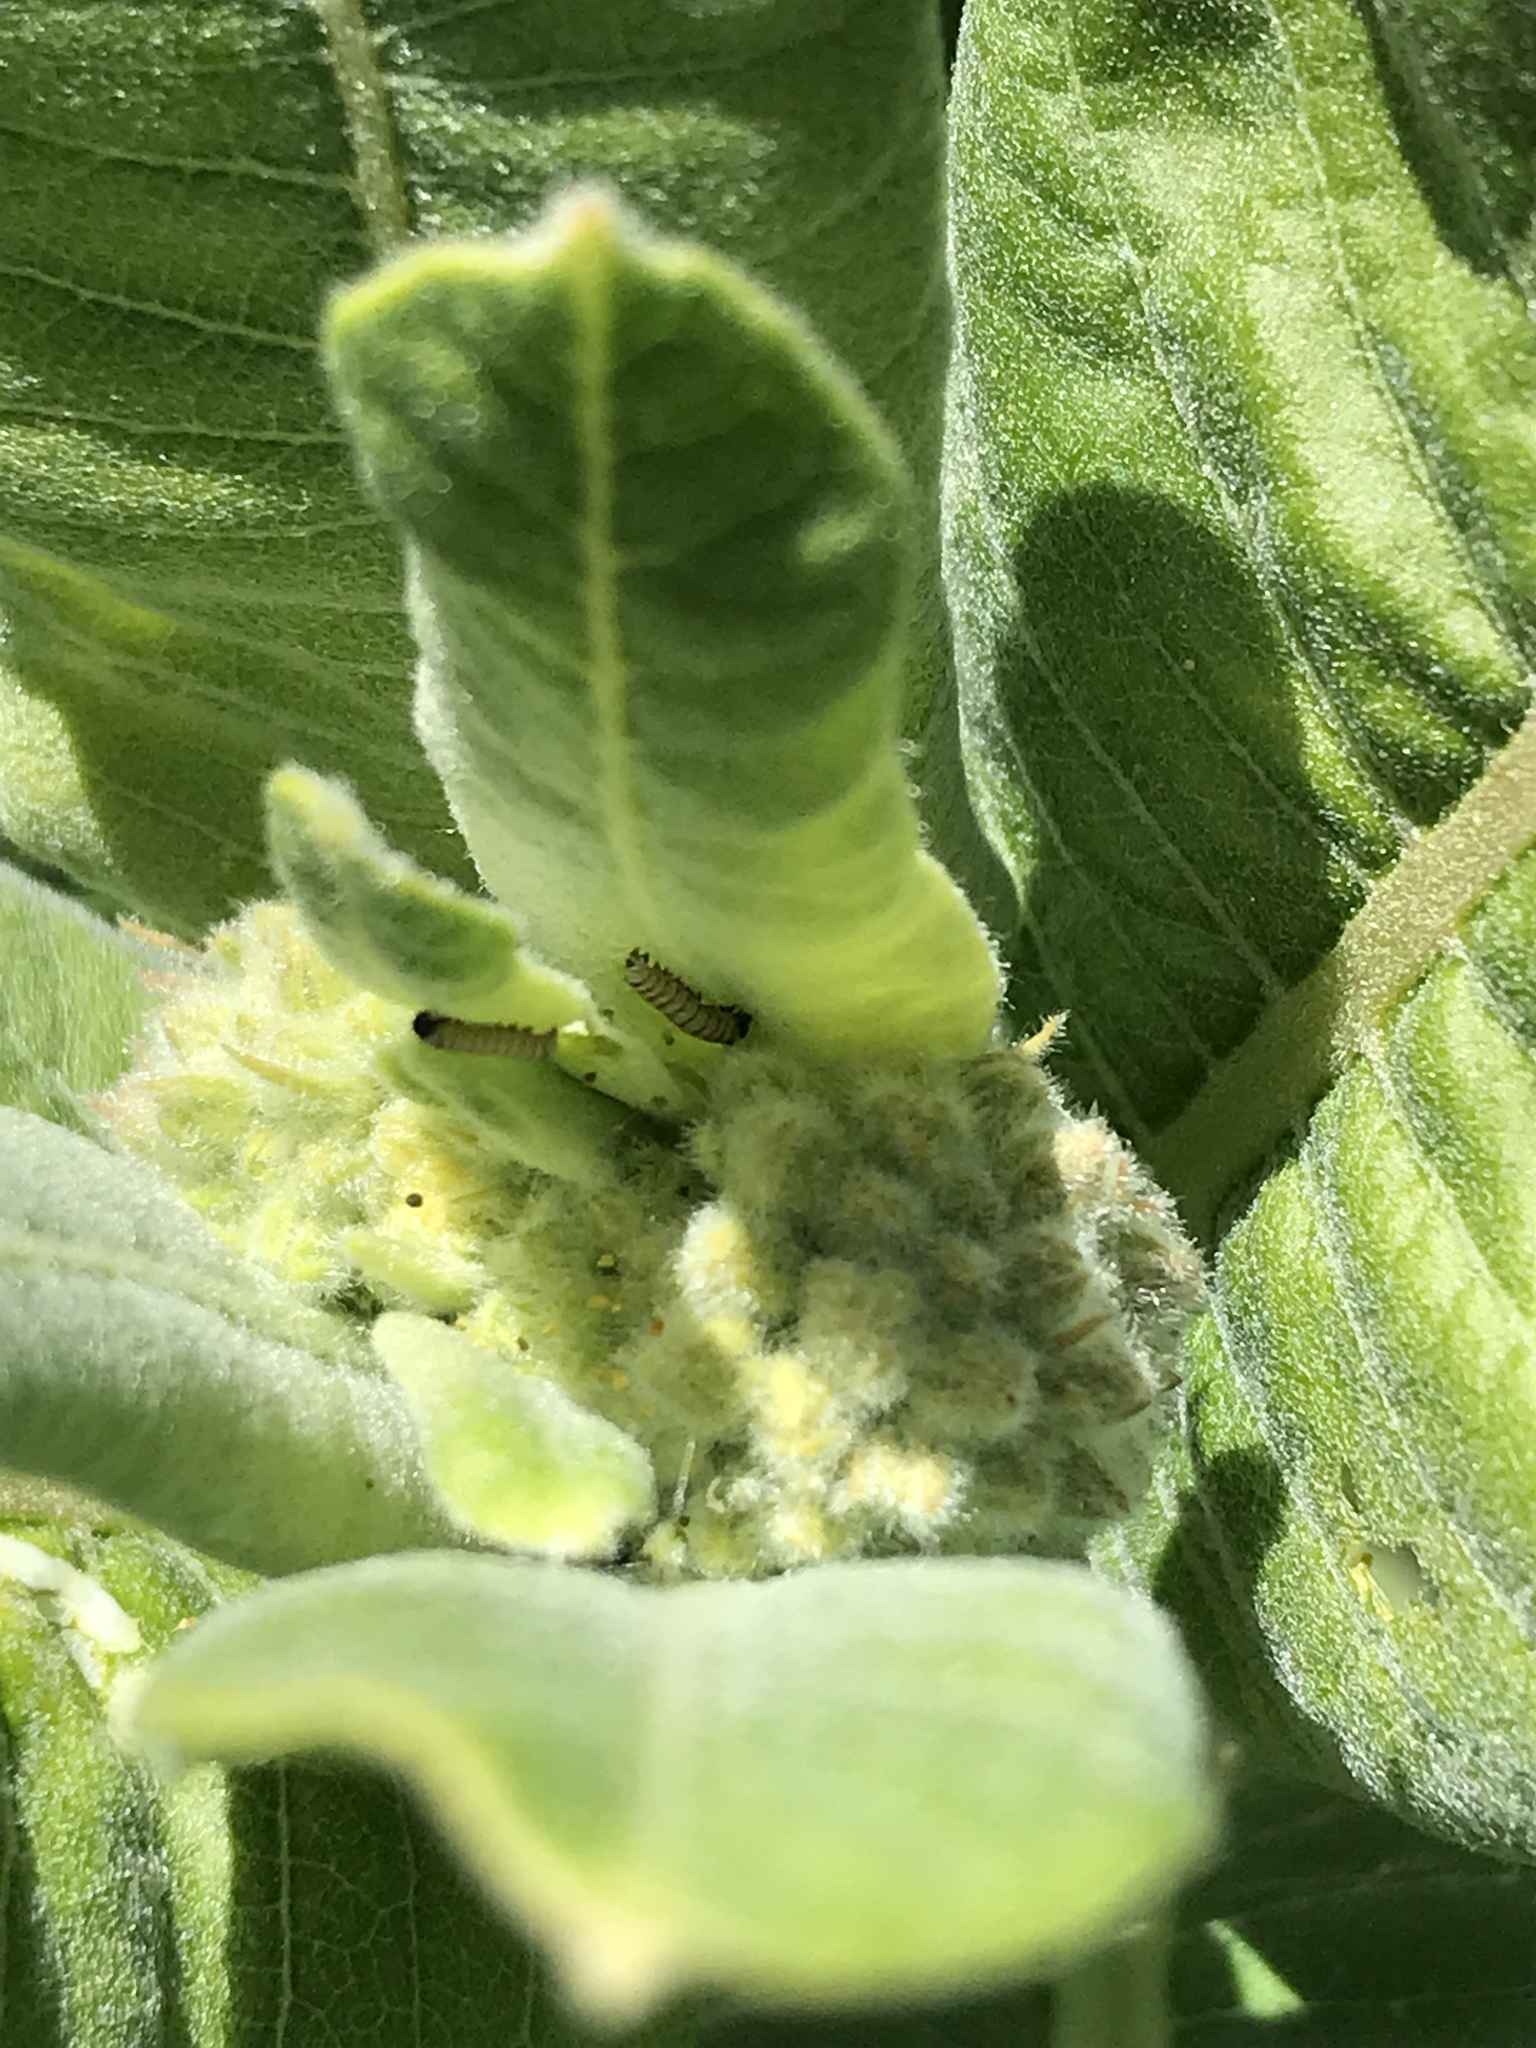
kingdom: Animalia
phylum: Arthropoda
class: Insecta
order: Lepidoptera
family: Nymphalidae
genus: Danaus
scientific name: Danaus plexippus
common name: Monarch
